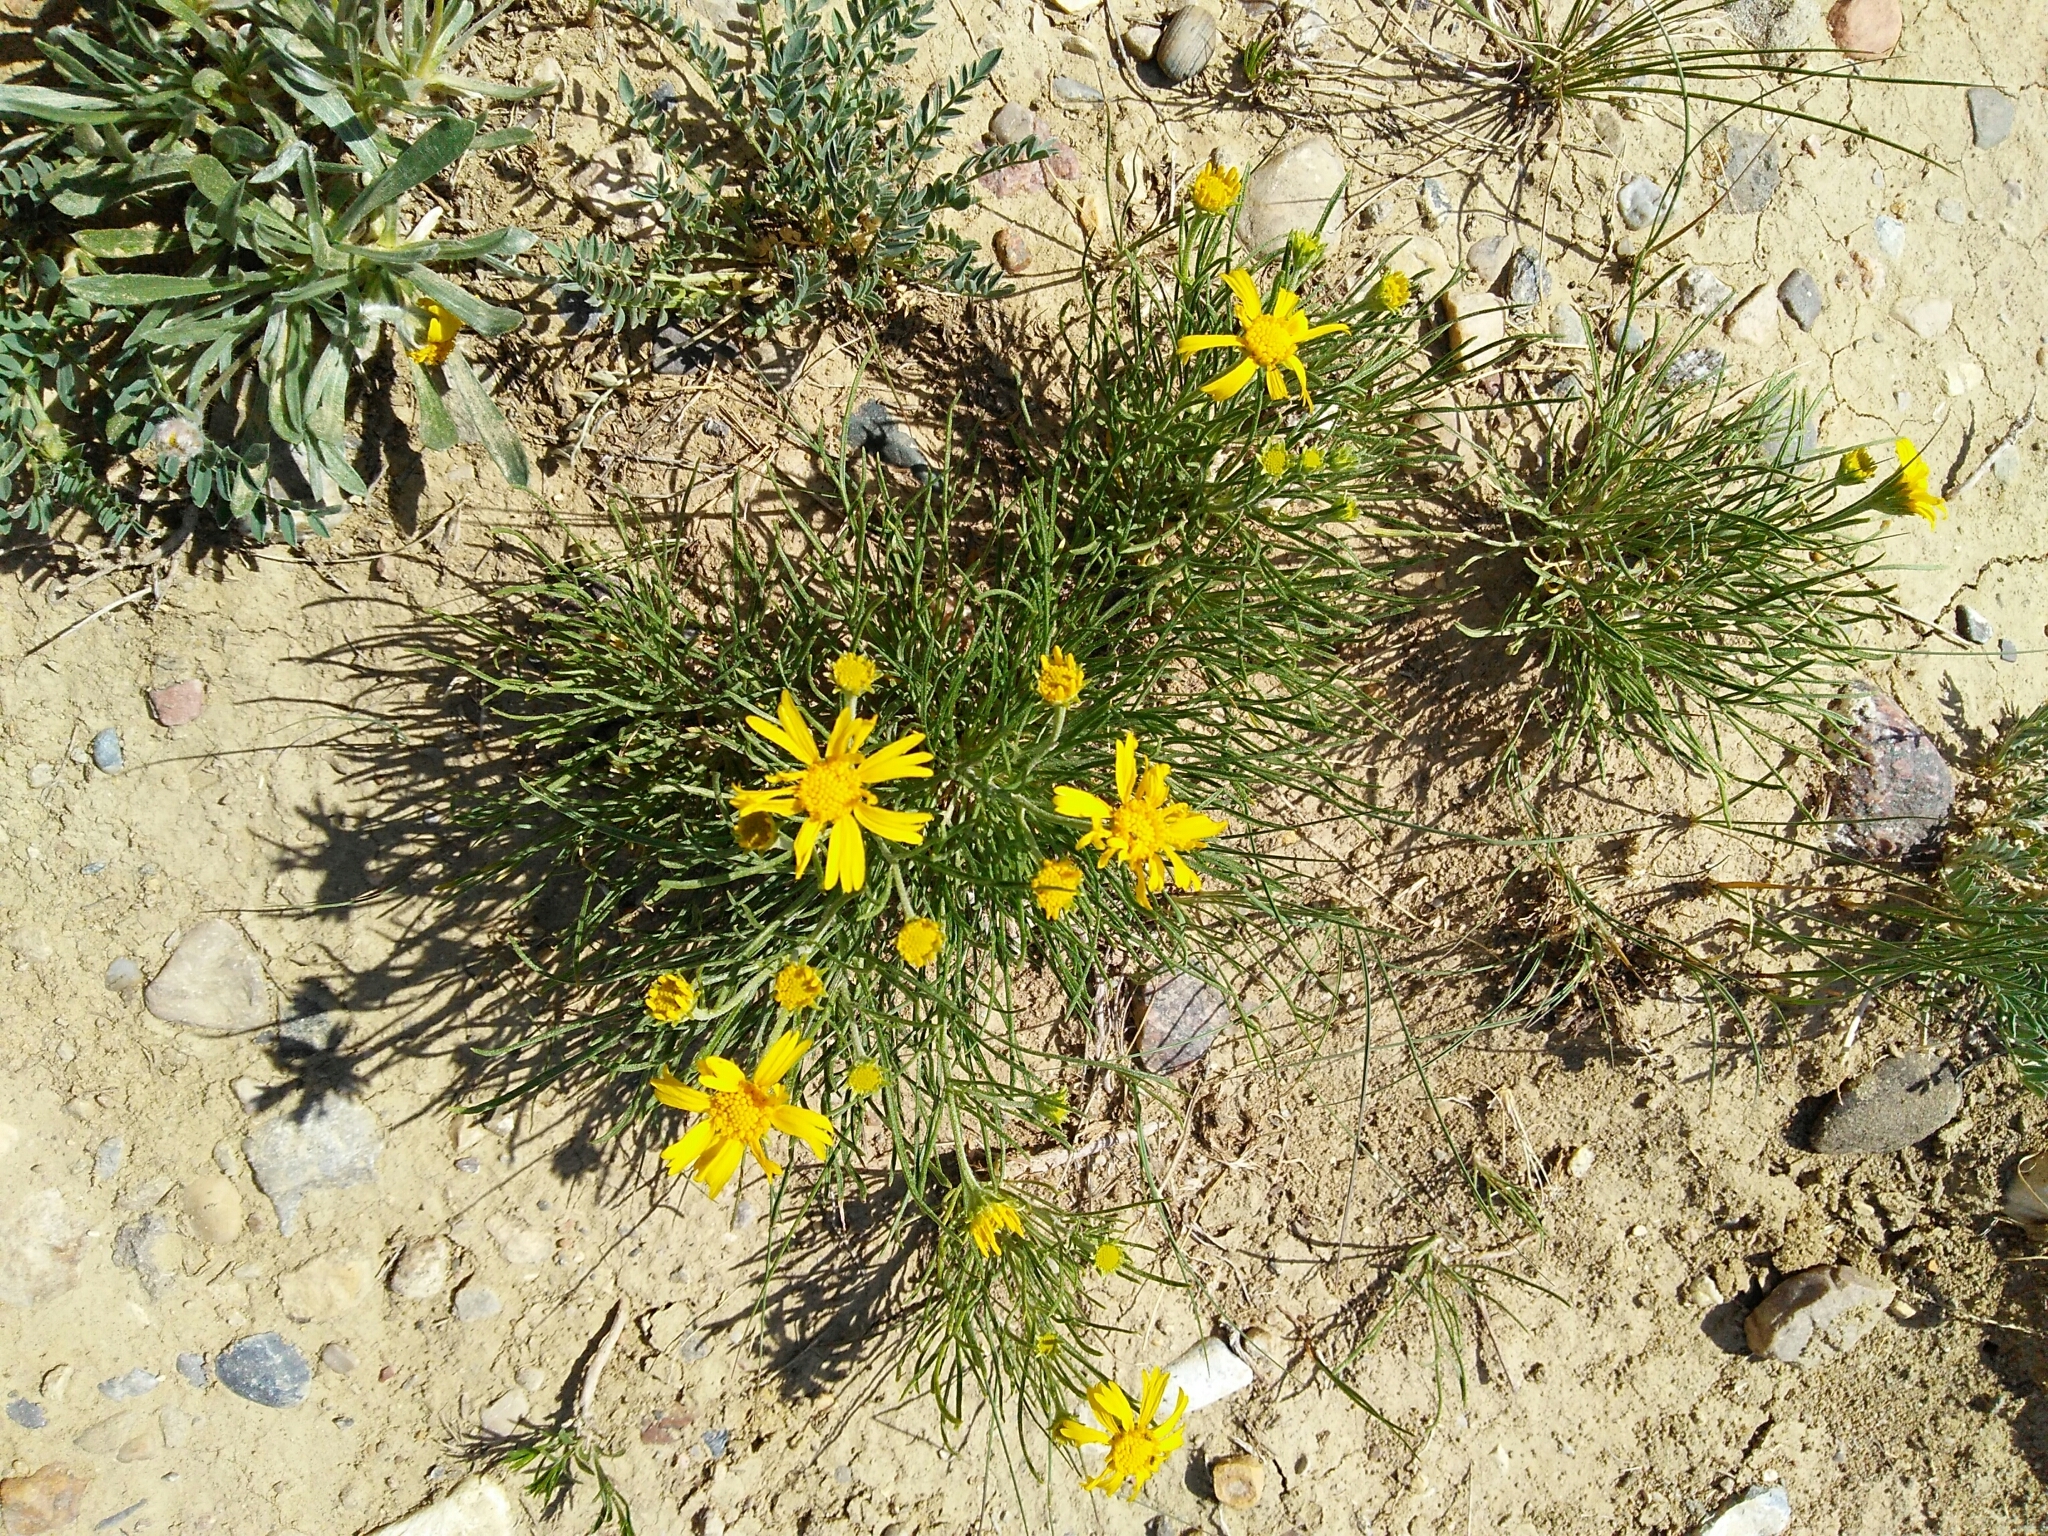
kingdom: Plantae
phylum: Tracheophyta
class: Magnoliopsida
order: Asterales
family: Asteraceae
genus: Hymenoxys
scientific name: Hymenoxys richardsonii
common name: Pingue rubberweed
